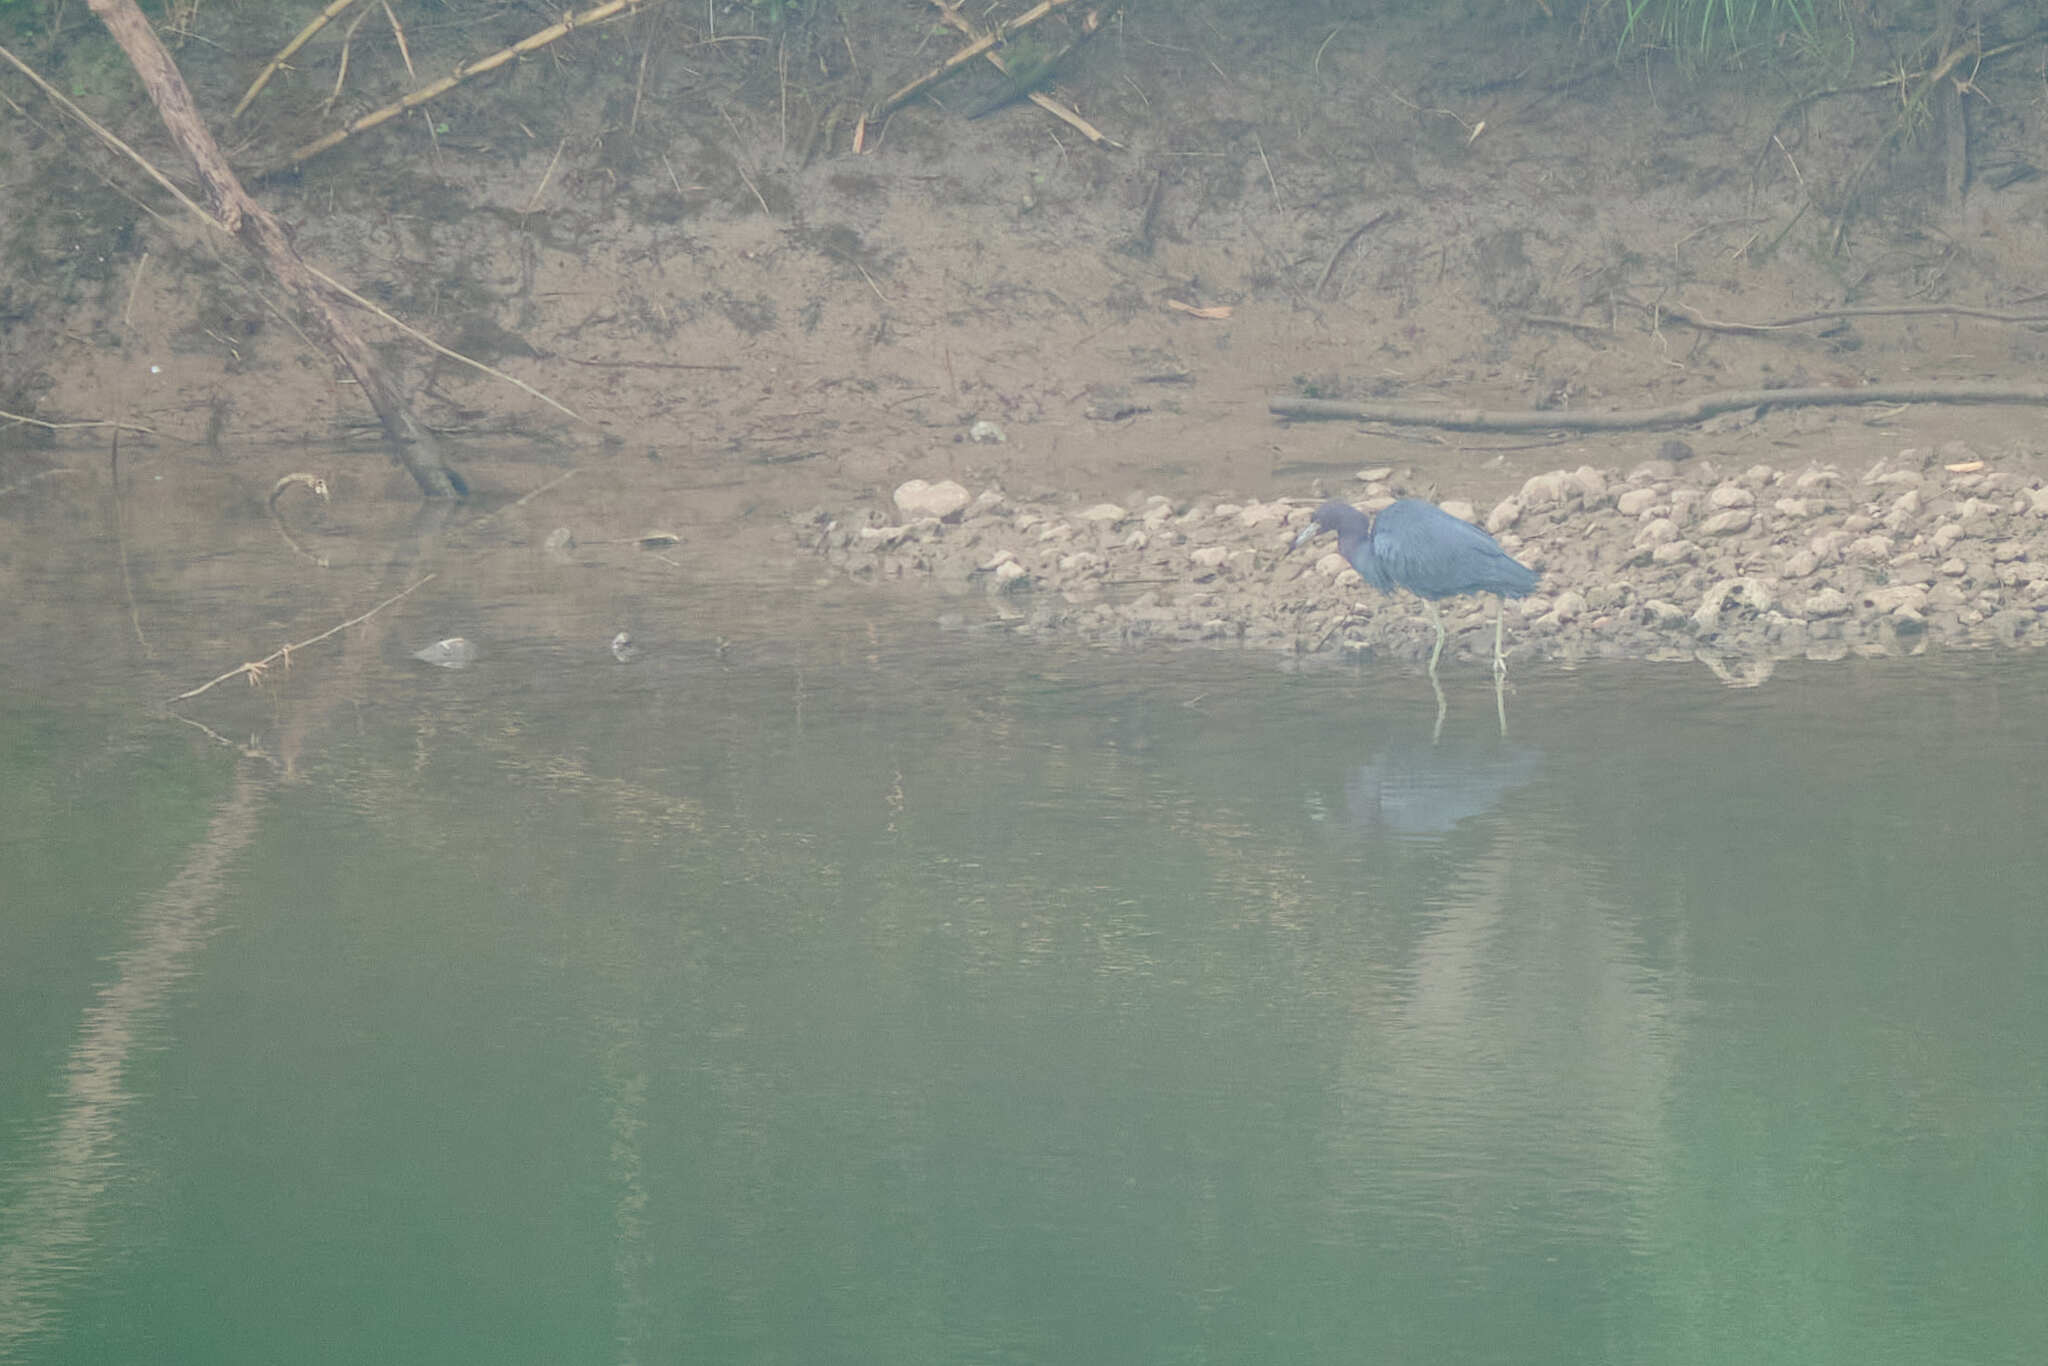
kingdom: Animalia
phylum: Chordata
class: Aves
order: Pelecaniformes
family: Ardeidae
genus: Egretta
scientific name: Egretta caerulea
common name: Little blue heron
